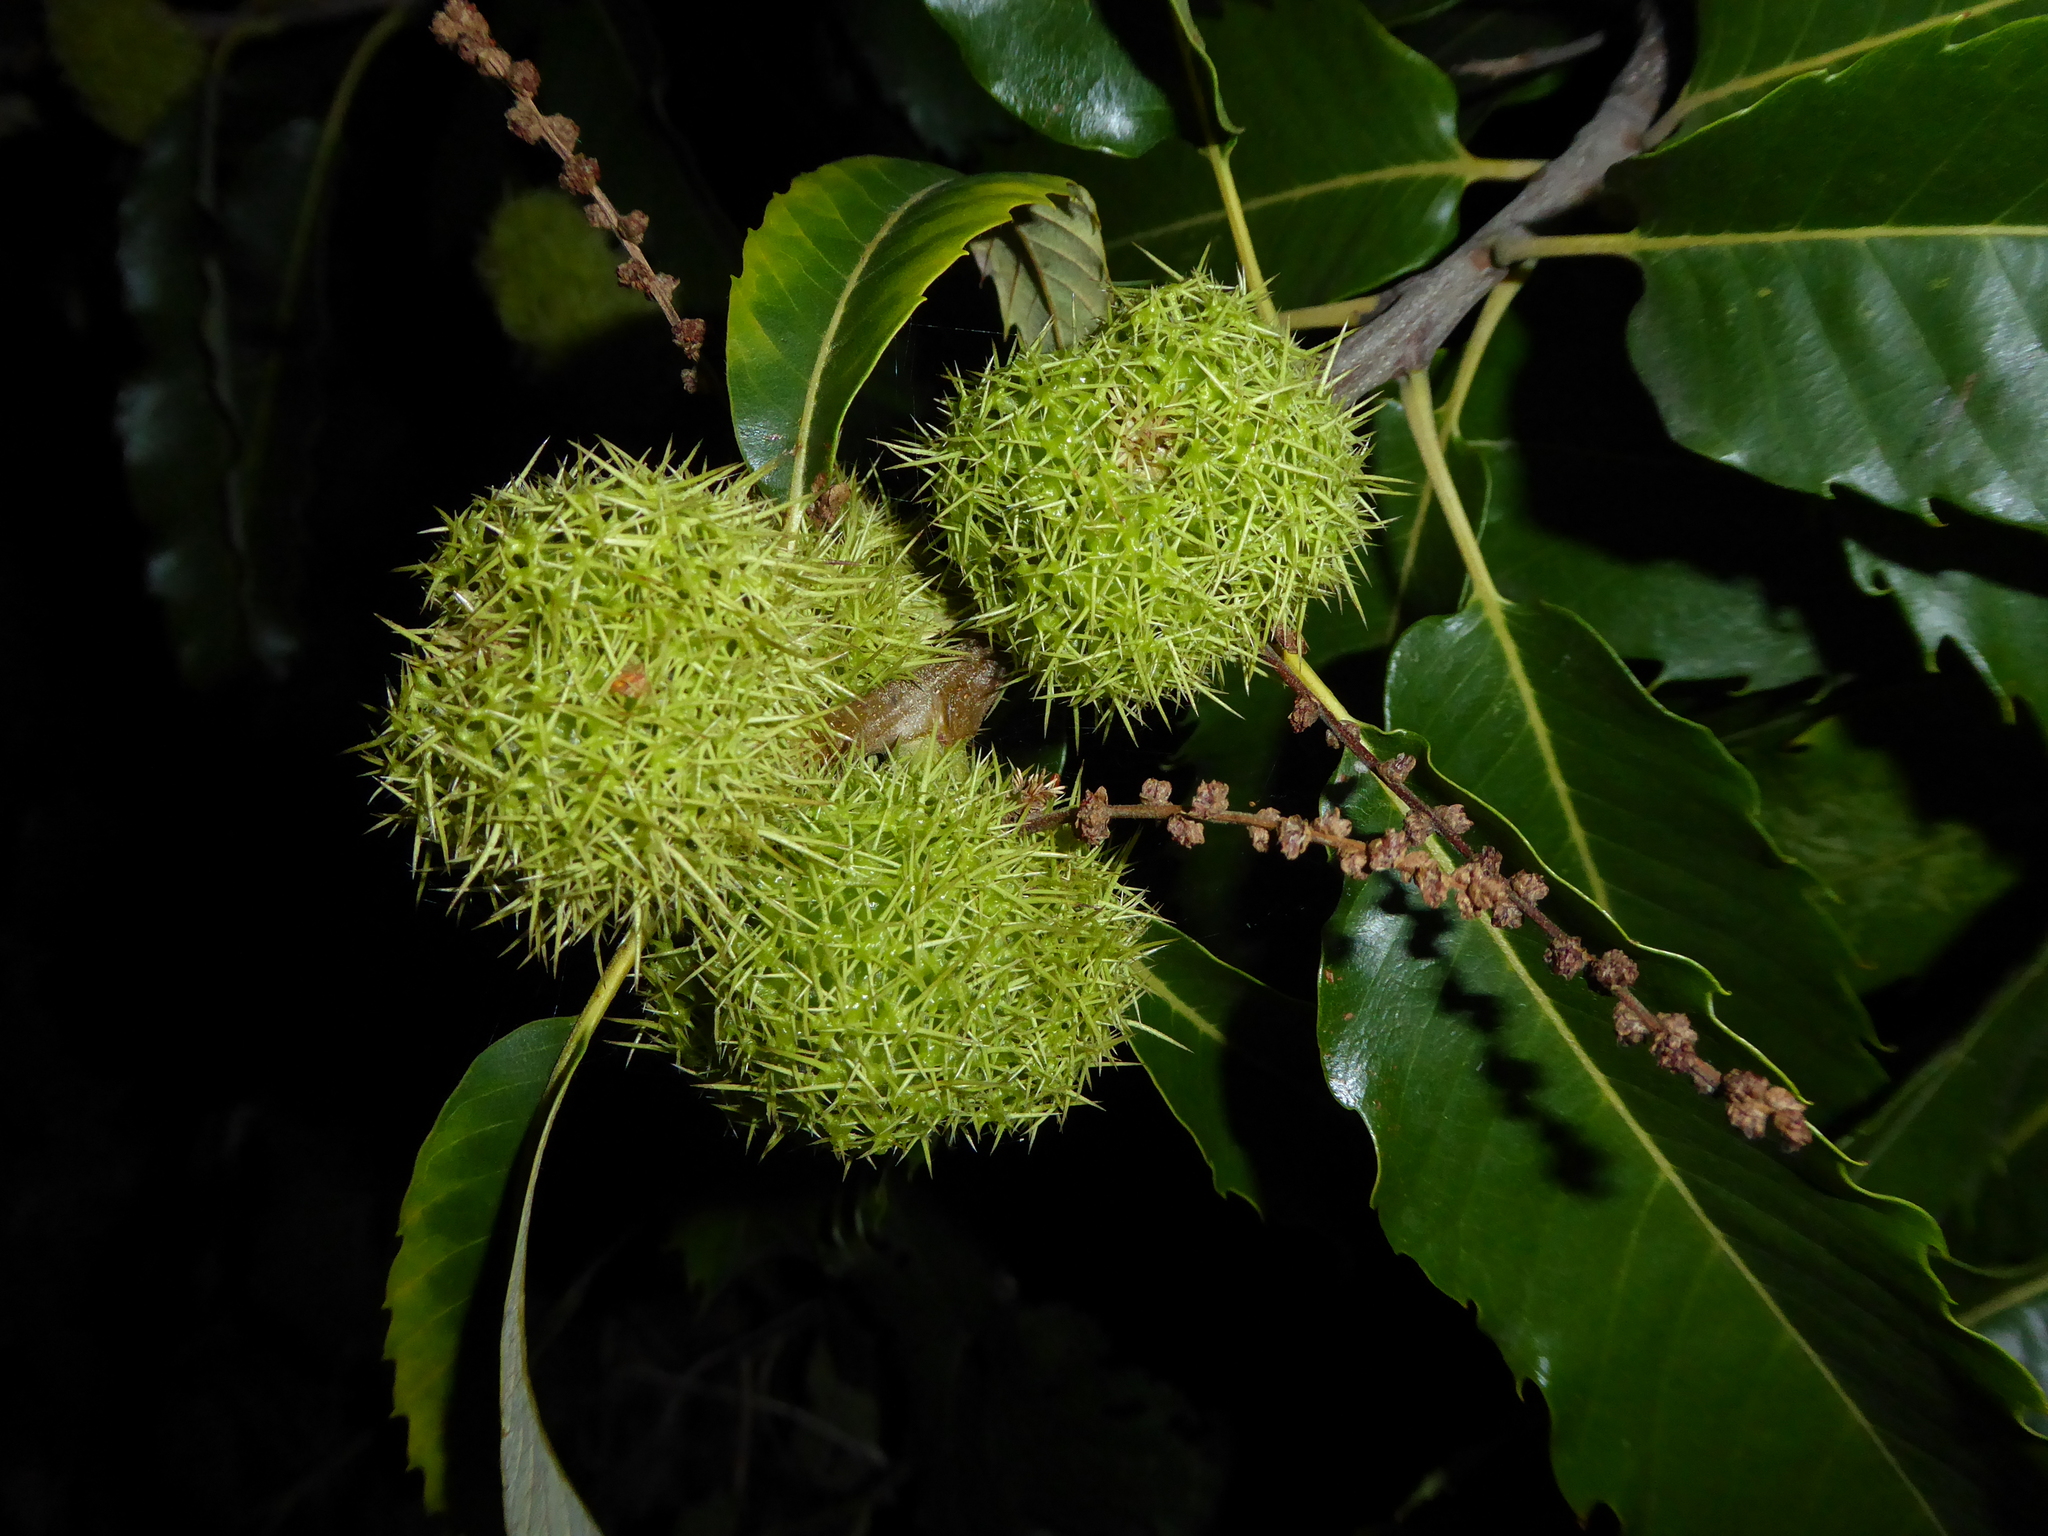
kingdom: Plantae
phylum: Tracheophyta
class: Magnoliopsida
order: Fagales
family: Fagaceae
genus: Castanea
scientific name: Castanea sativa
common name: Sweet chestnut
